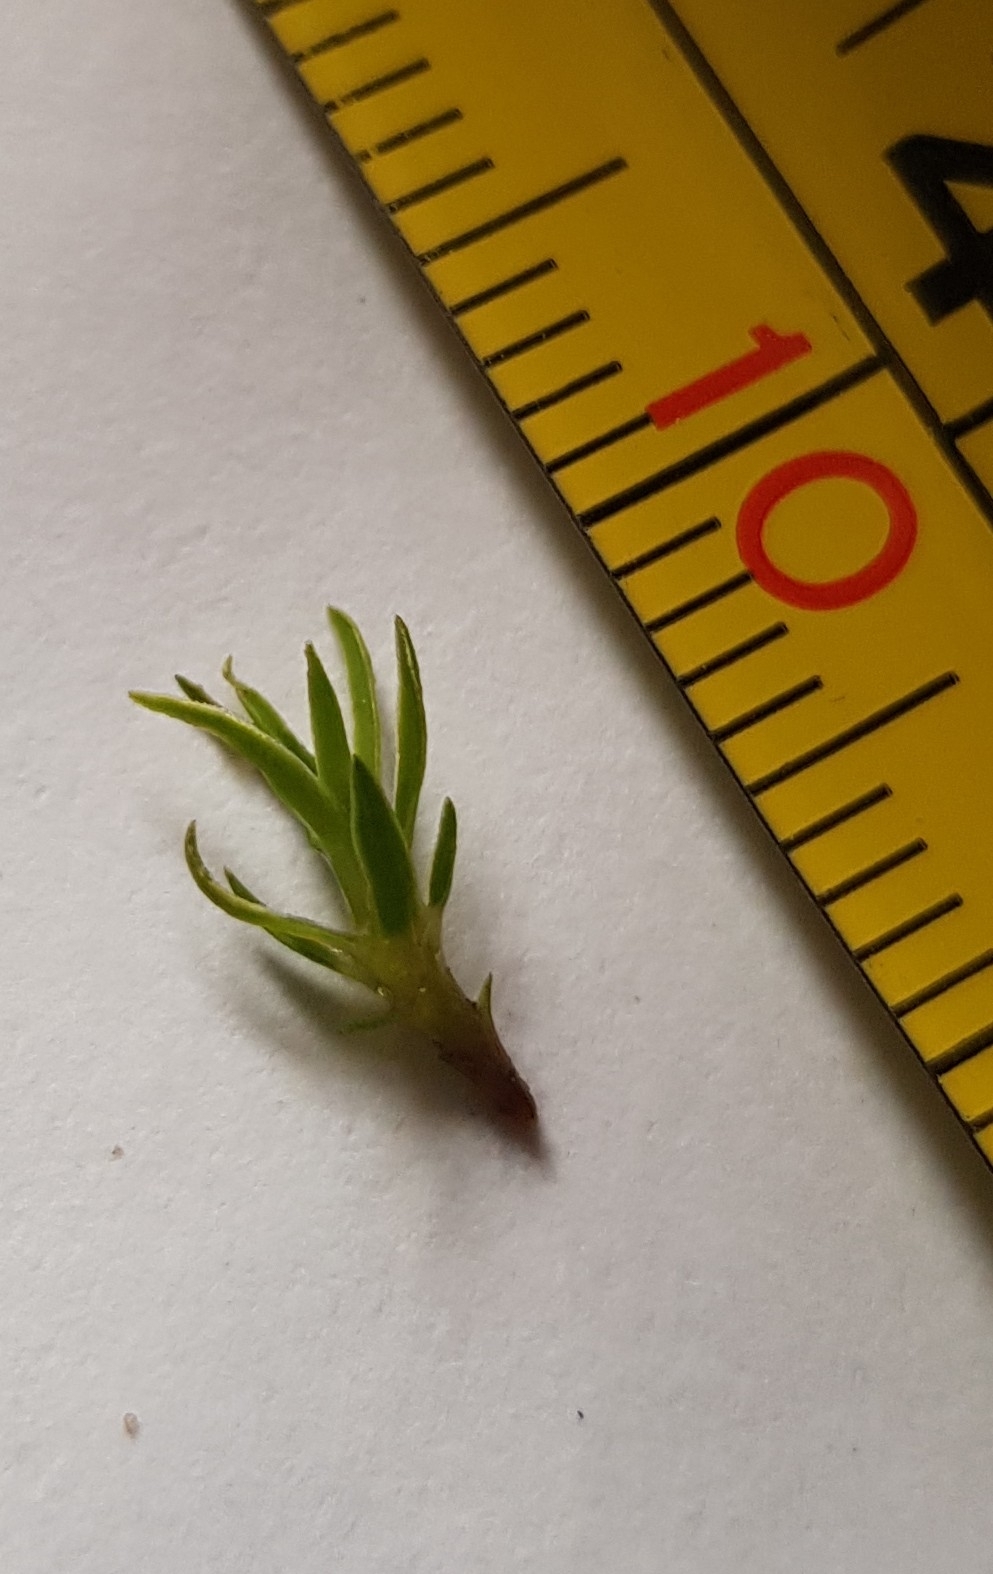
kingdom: Plantae
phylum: Bryophyta
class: Polytrichopsida
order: Polytrichales
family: Polytrichaceae
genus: Pogonatum
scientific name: Pogonatum aloides
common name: Aloe haircap
